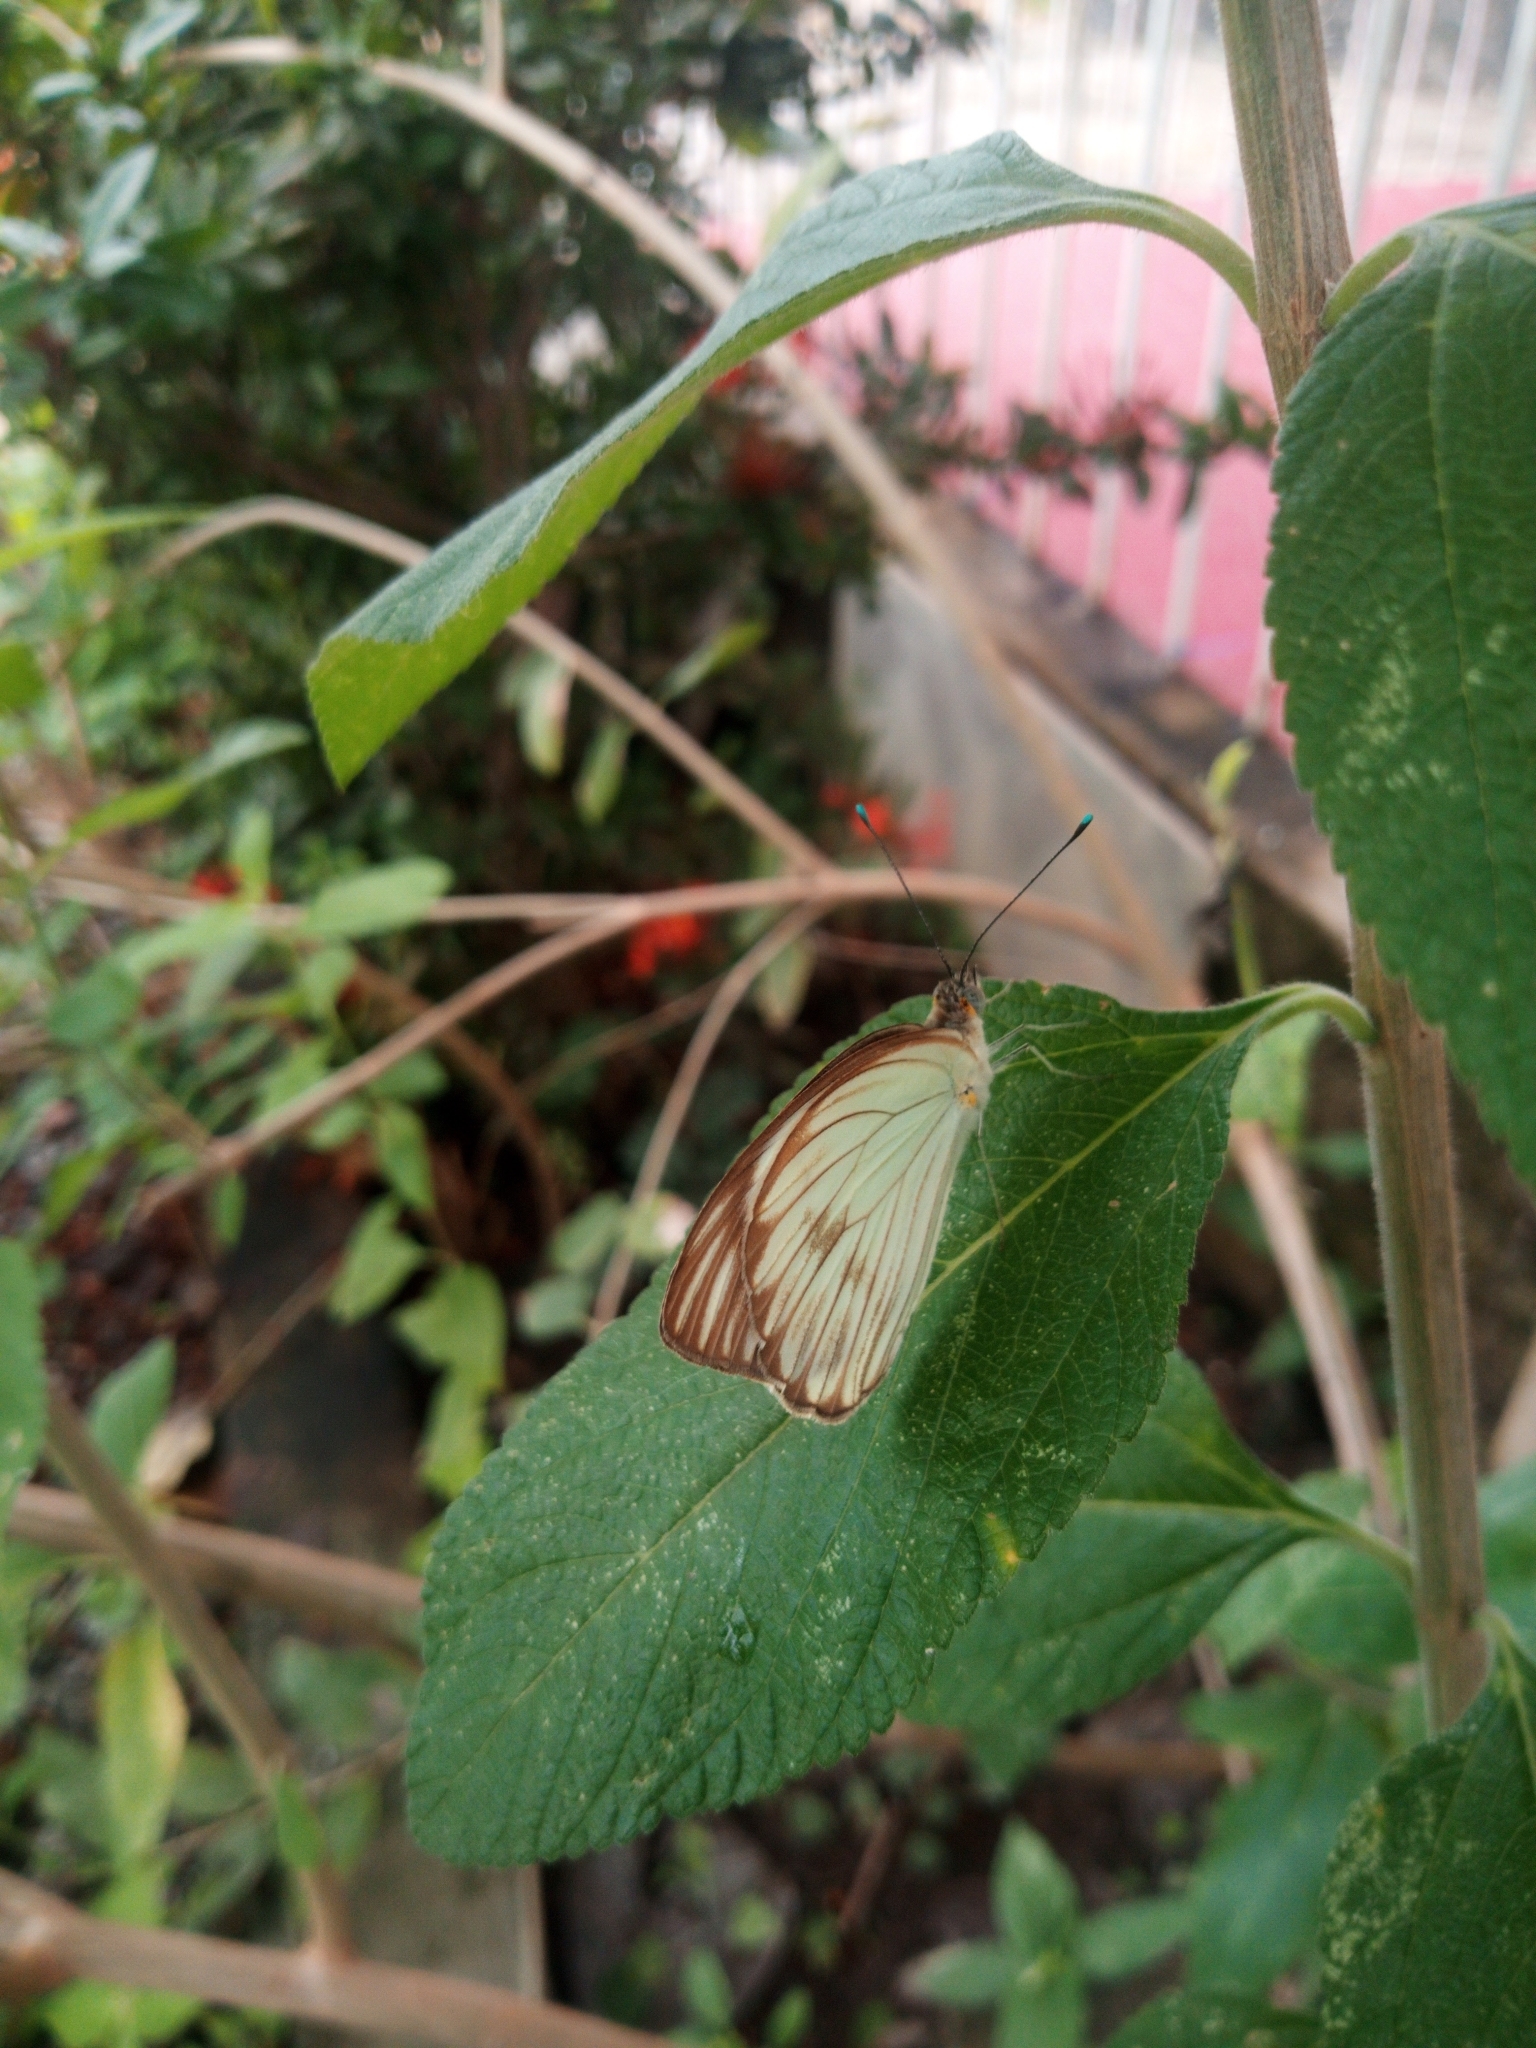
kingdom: Animalia
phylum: Arthropoda
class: Insecta
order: Lepidoptera
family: Pieridae
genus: Ascia
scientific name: Ascia monuste
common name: Great southern white
